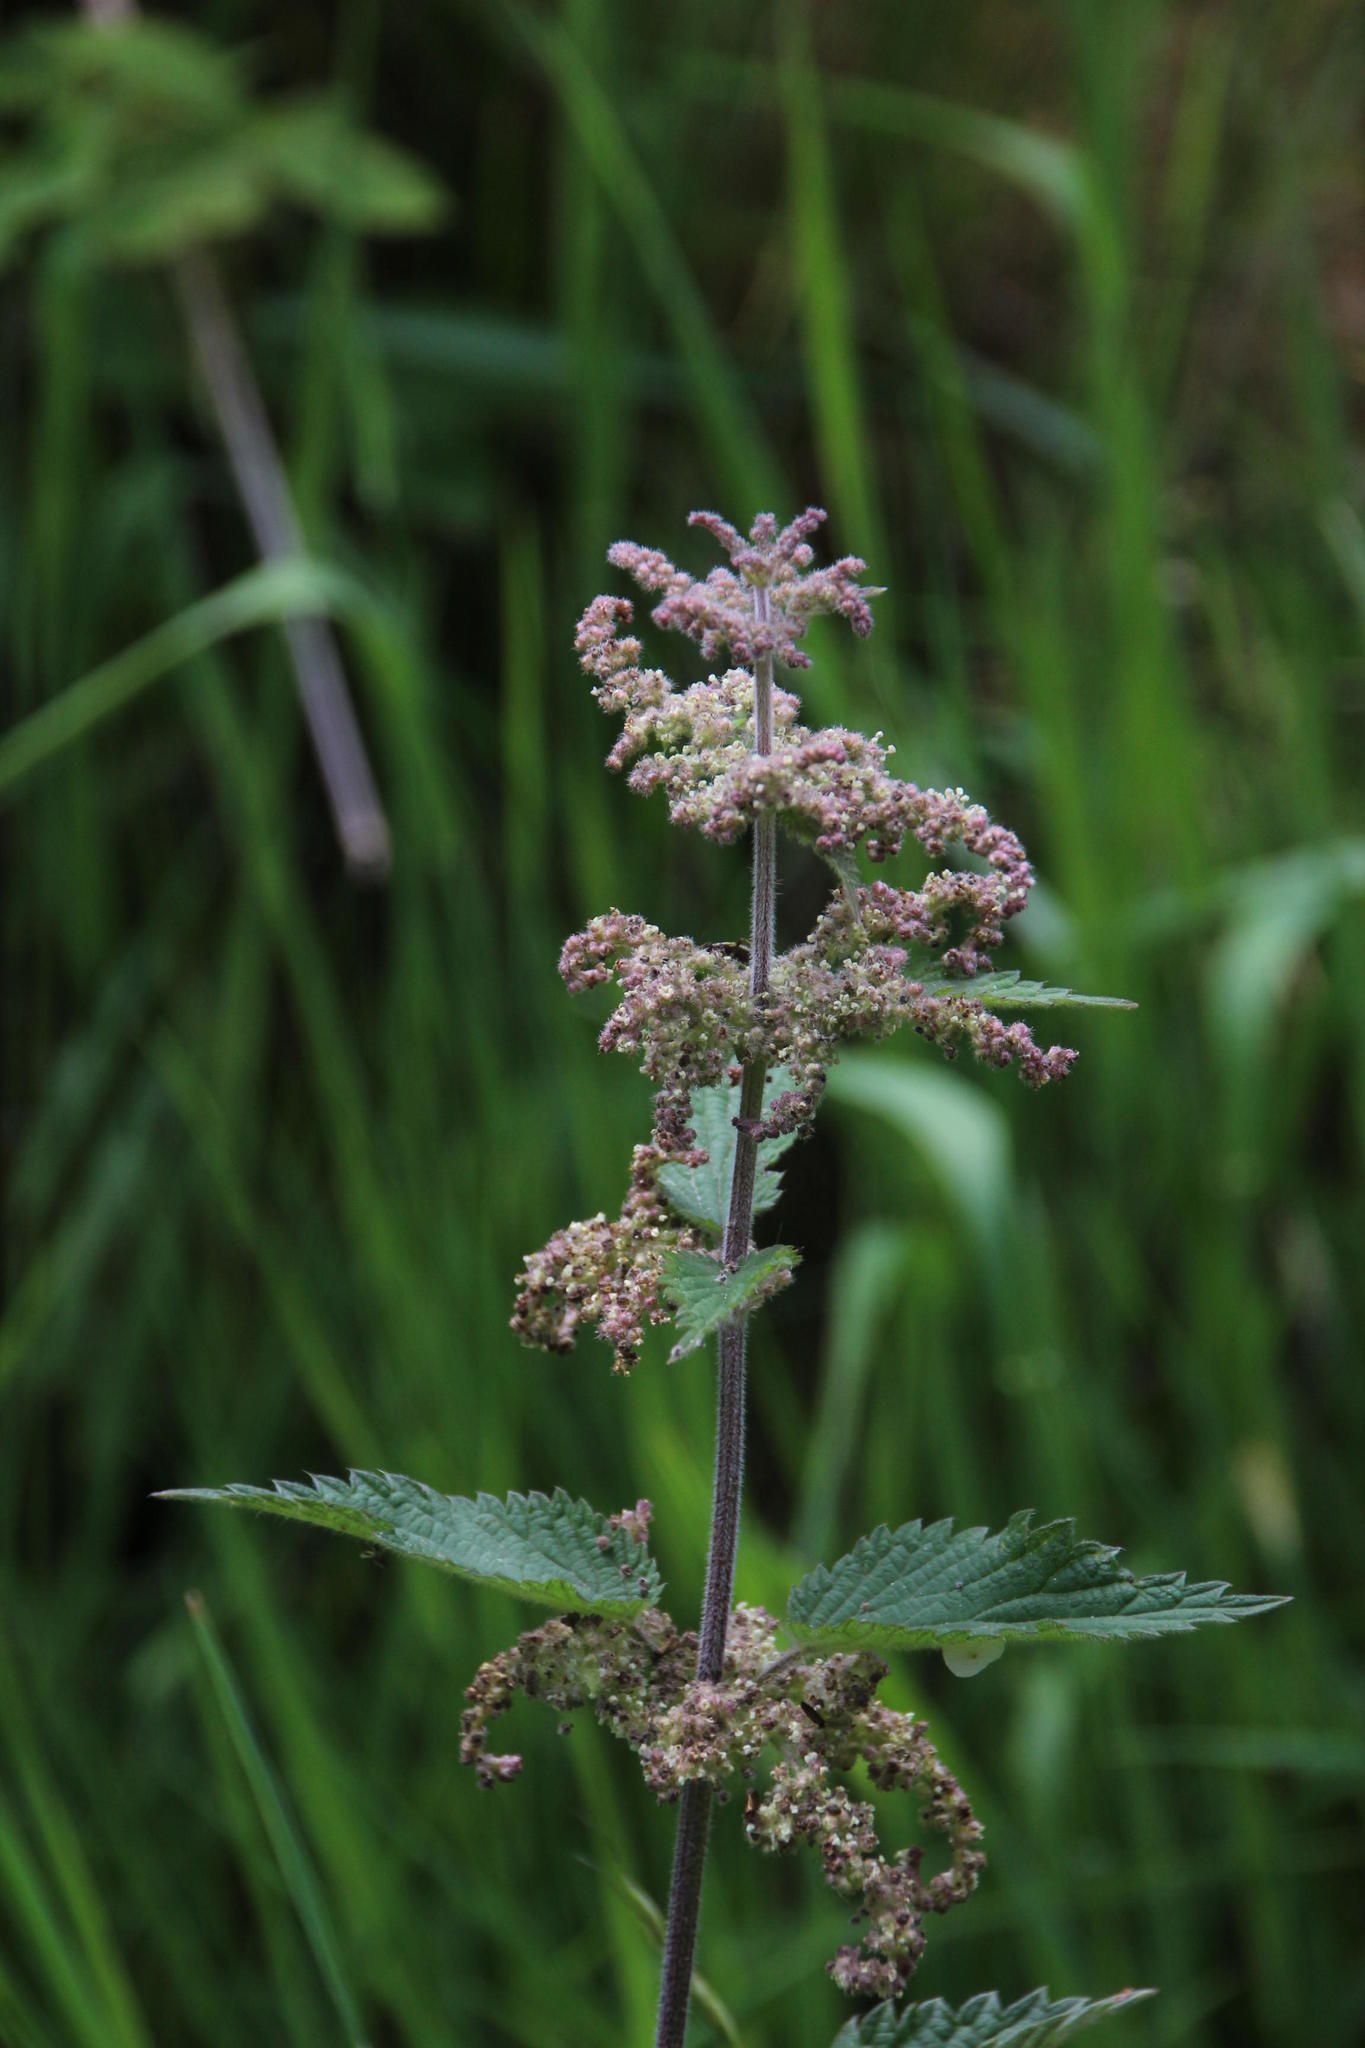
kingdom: Plantae
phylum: Tracheophyta
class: Magnoliopsida
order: Rosales
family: Urticaceae
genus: Urtica
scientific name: Urtica dioica
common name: Common nettle
